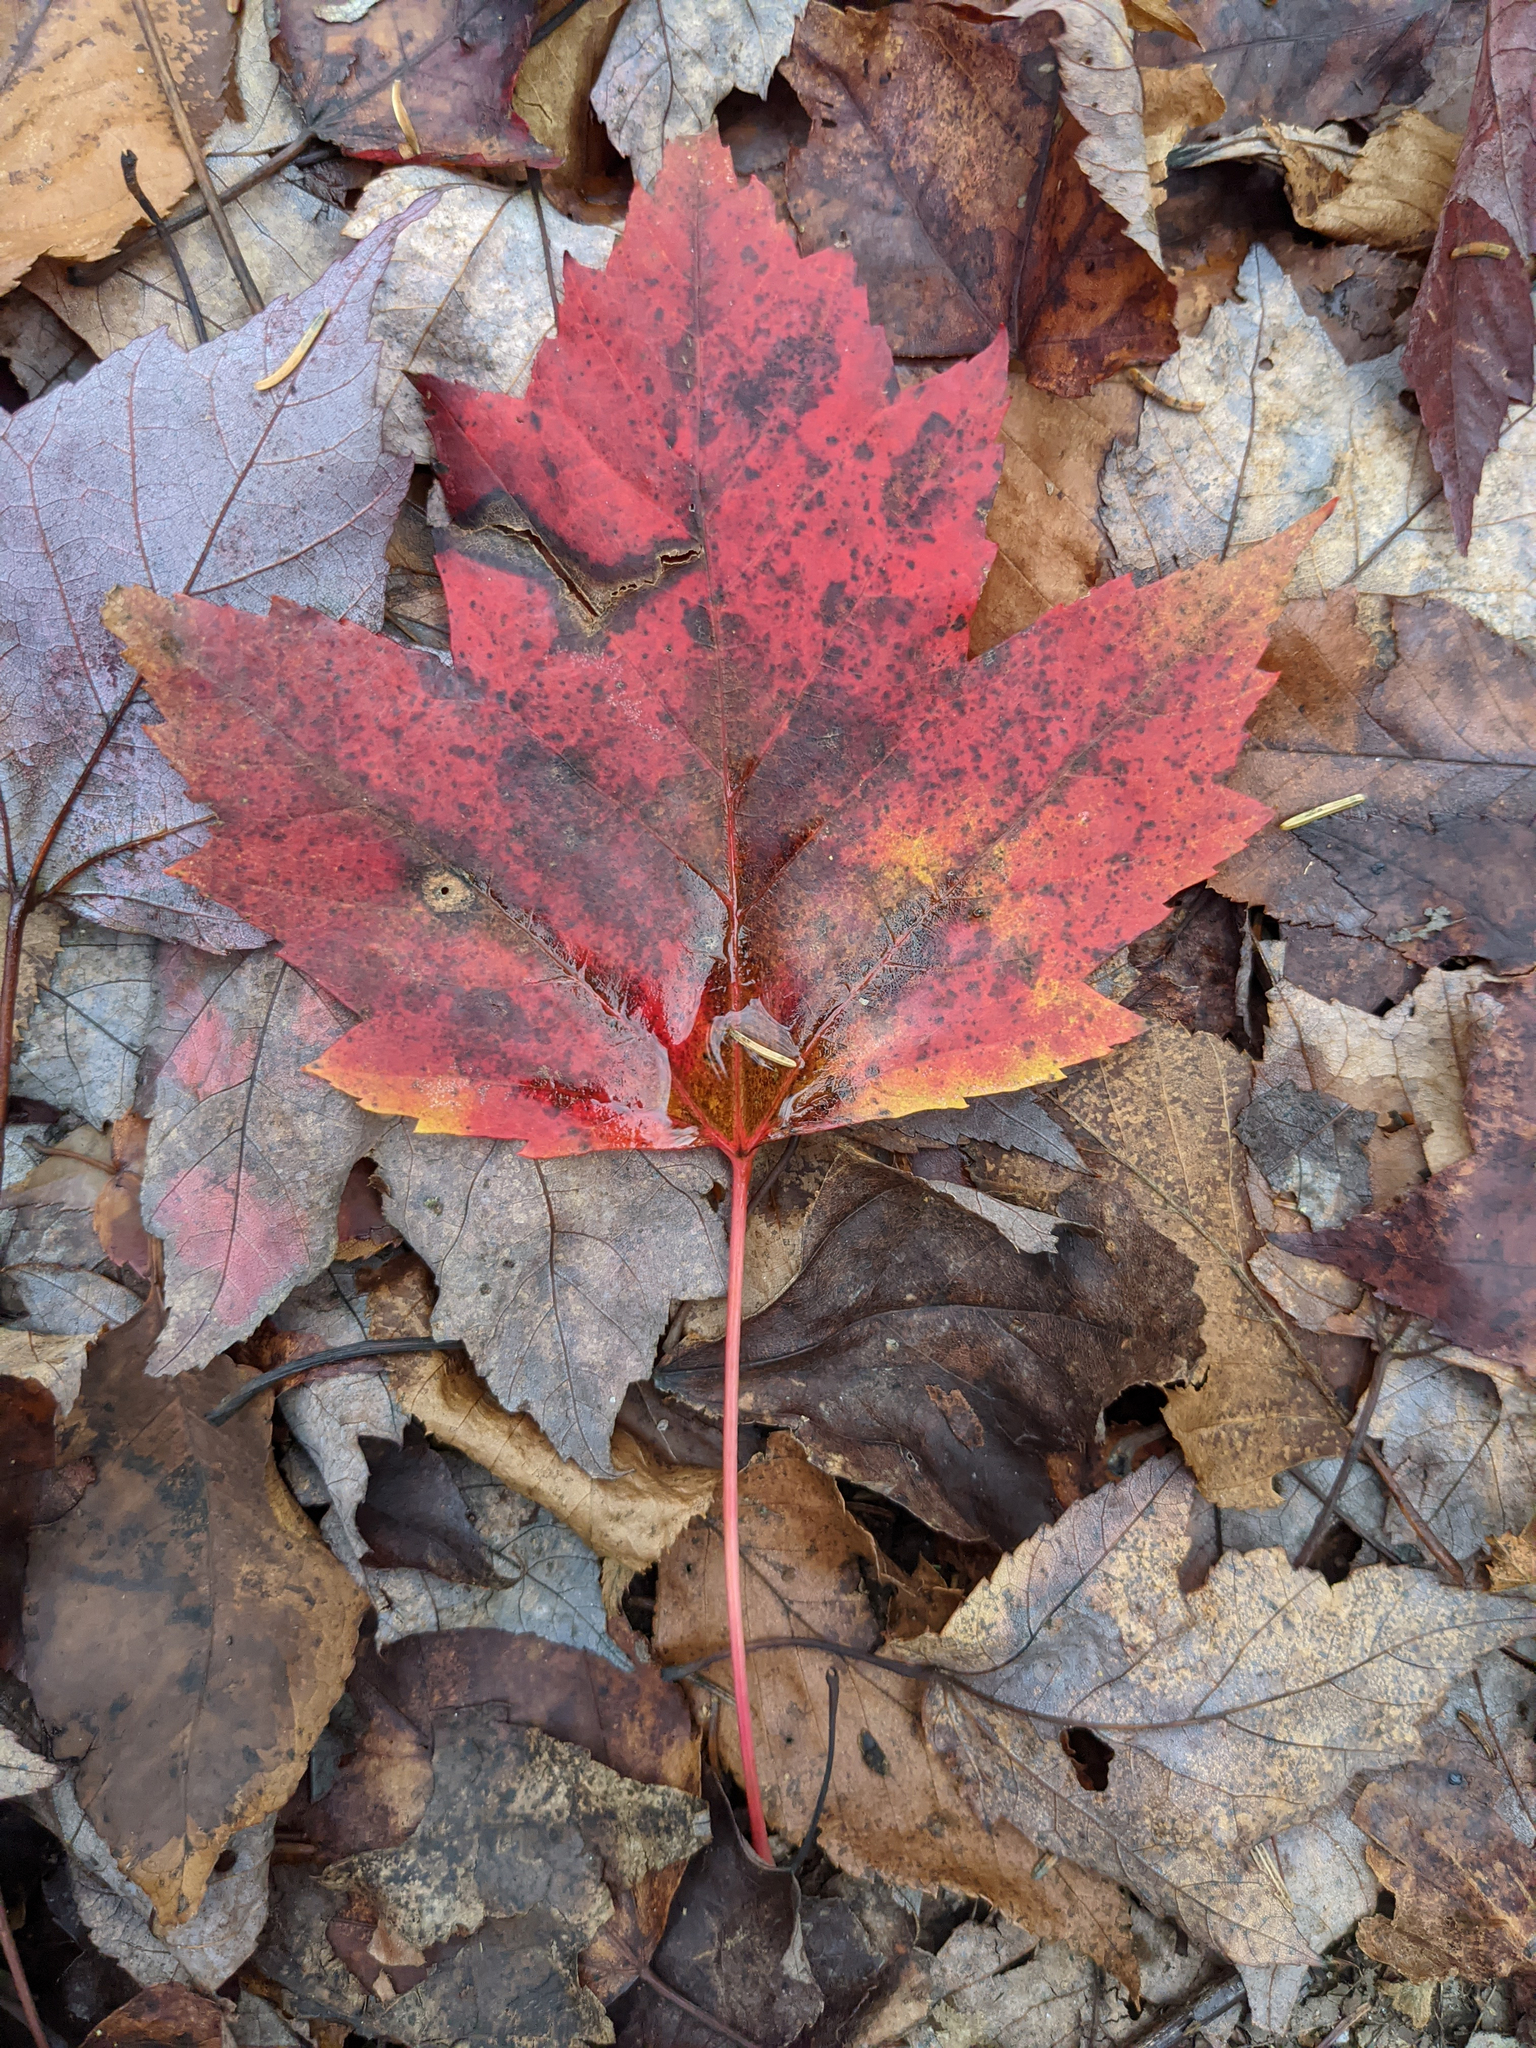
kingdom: Plantae
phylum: Tracheophyta
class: Magnoliopsida
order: Sapindales
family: Sapindaceae
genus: Acer
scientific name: Acer rubrum
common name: Red maple
